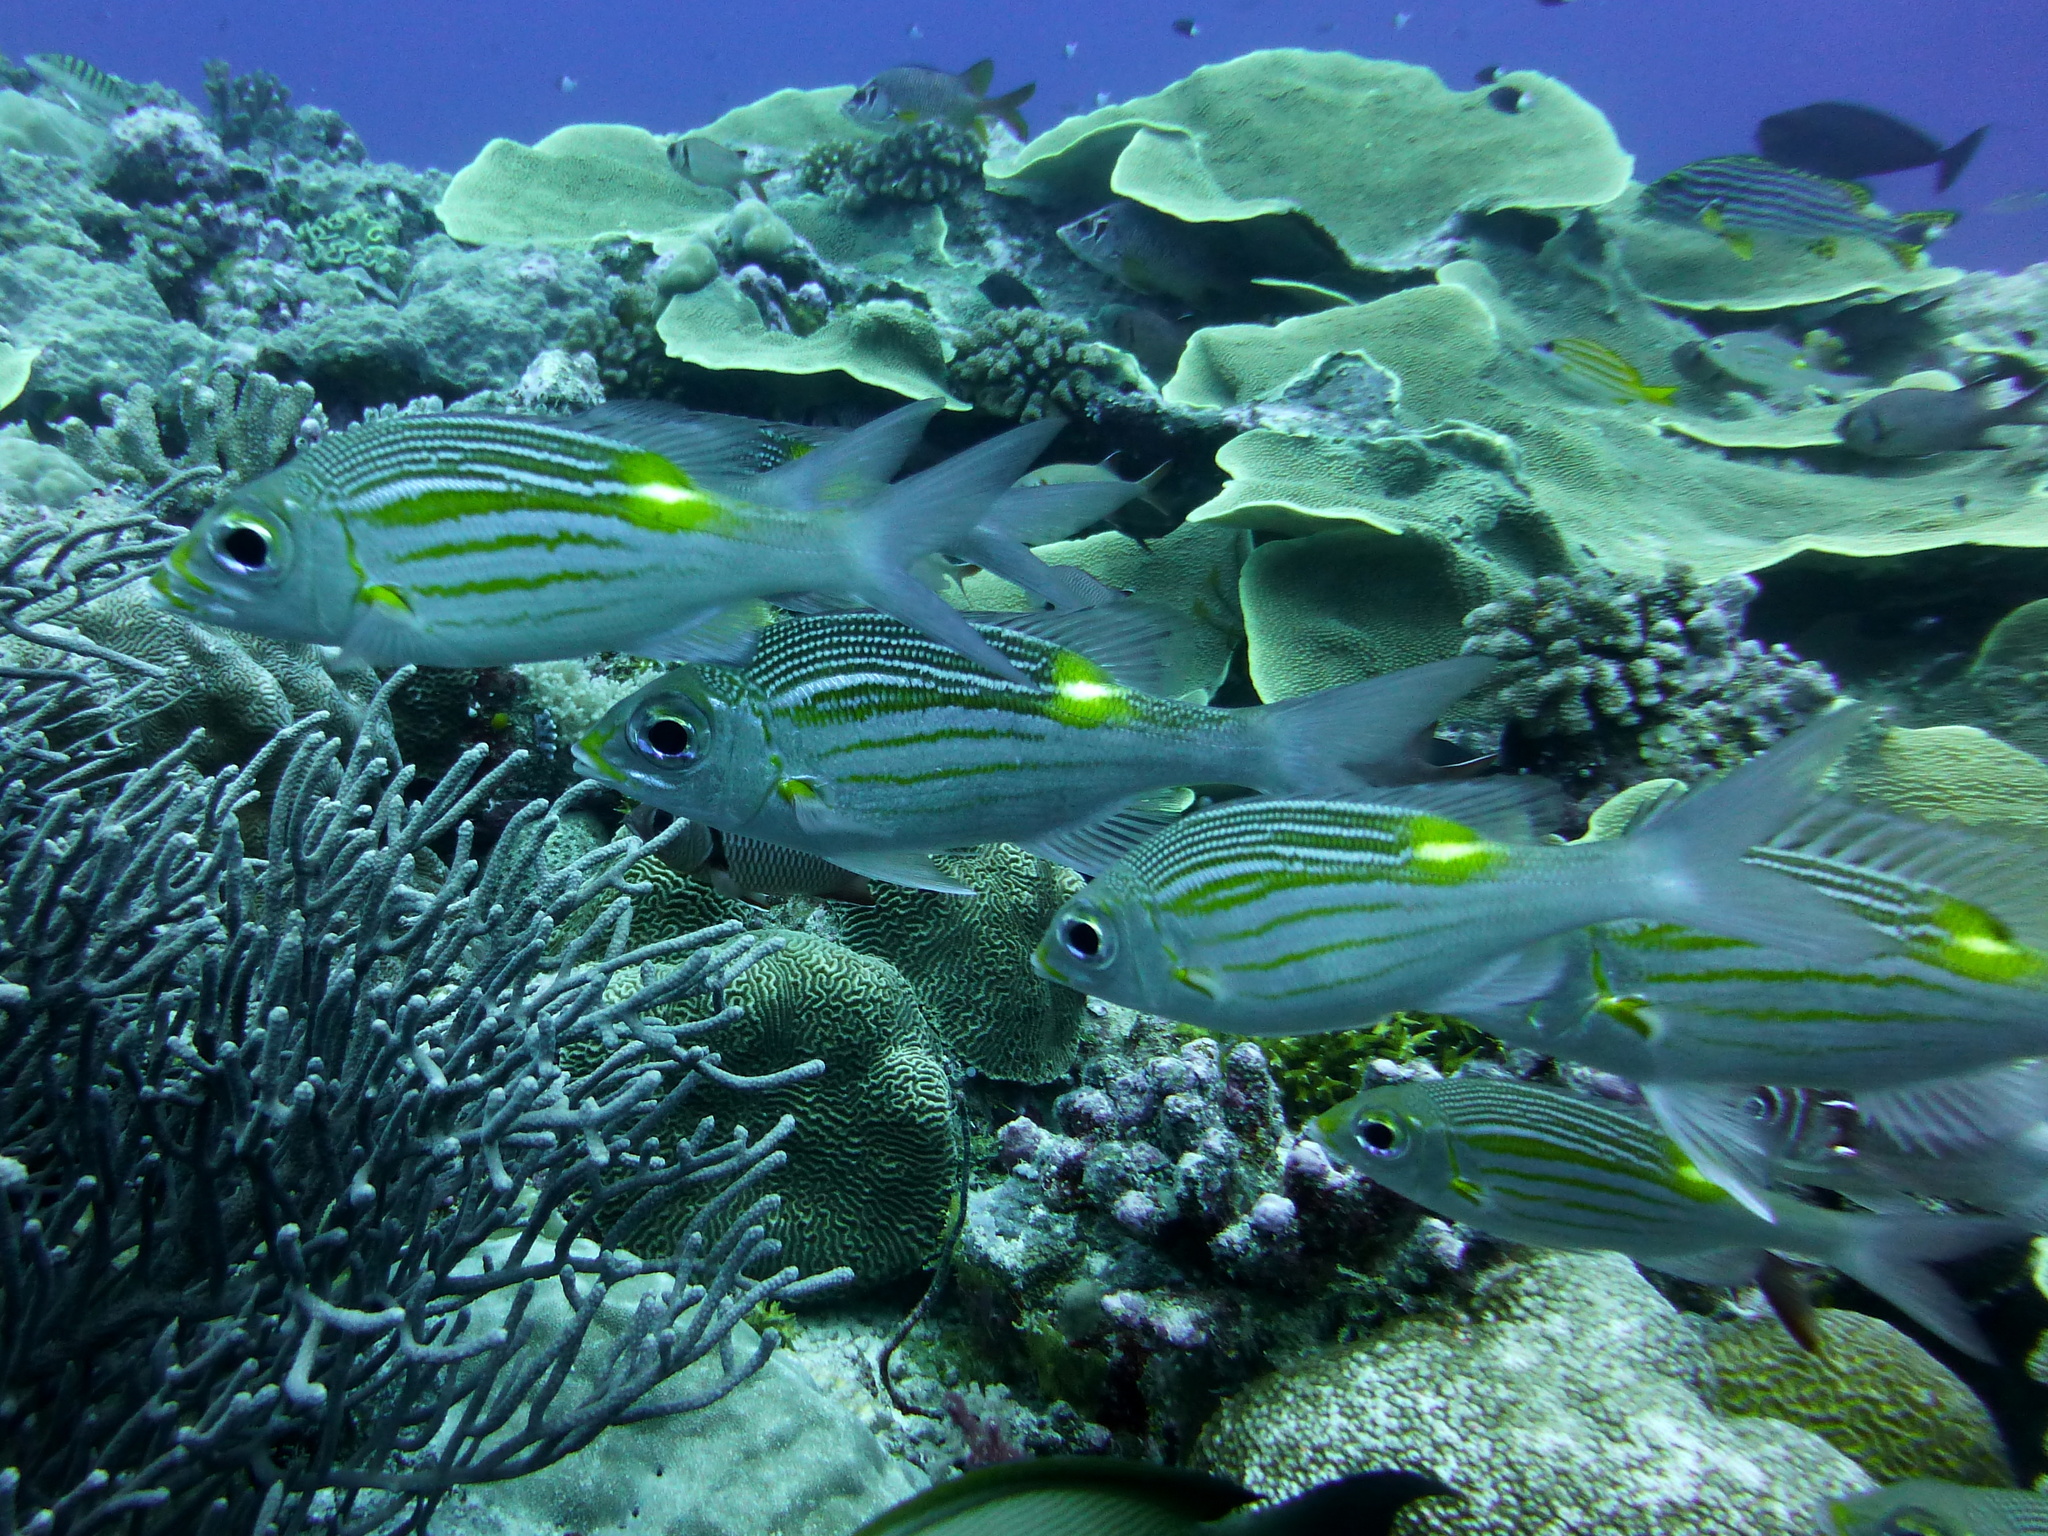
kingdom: Animalia
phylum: Chordata
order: Perciformes
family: Lethrinidae
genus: Gnathodentex
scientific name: Gnathodentex aureolineatus
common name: Gold-lined sea bream
